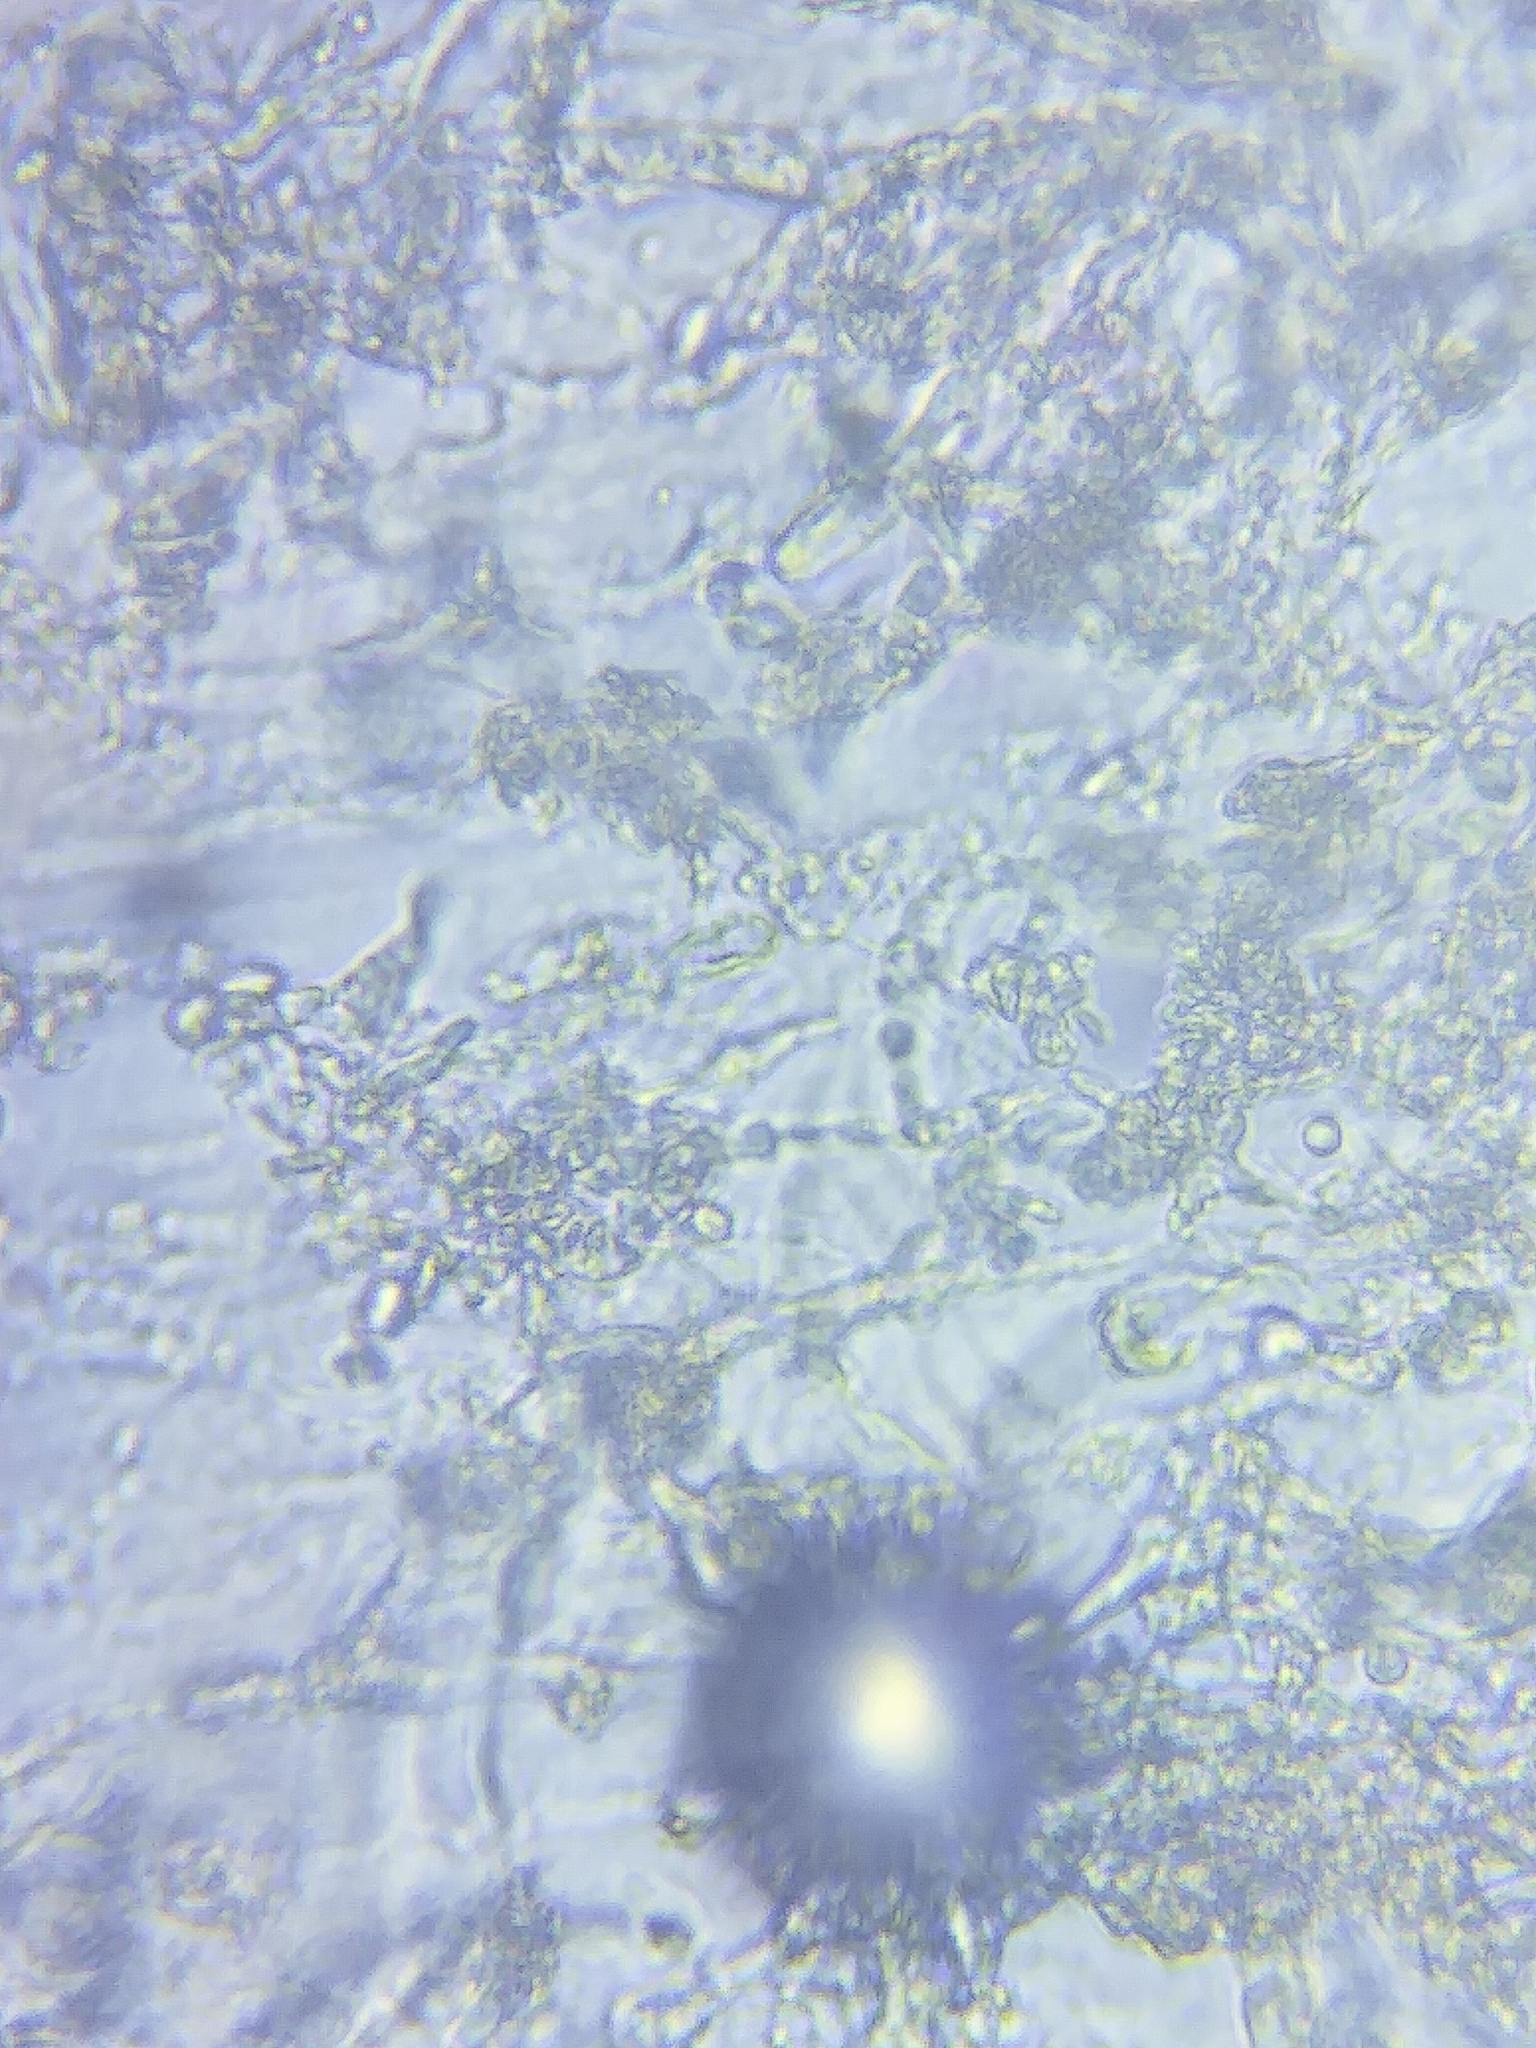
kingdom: Fungi
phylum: Basidiomycota
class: Agaricomycetes
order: Agaricales
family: Mycenaceae
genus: Resinomycena
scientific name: Resinomycena rhododendri
